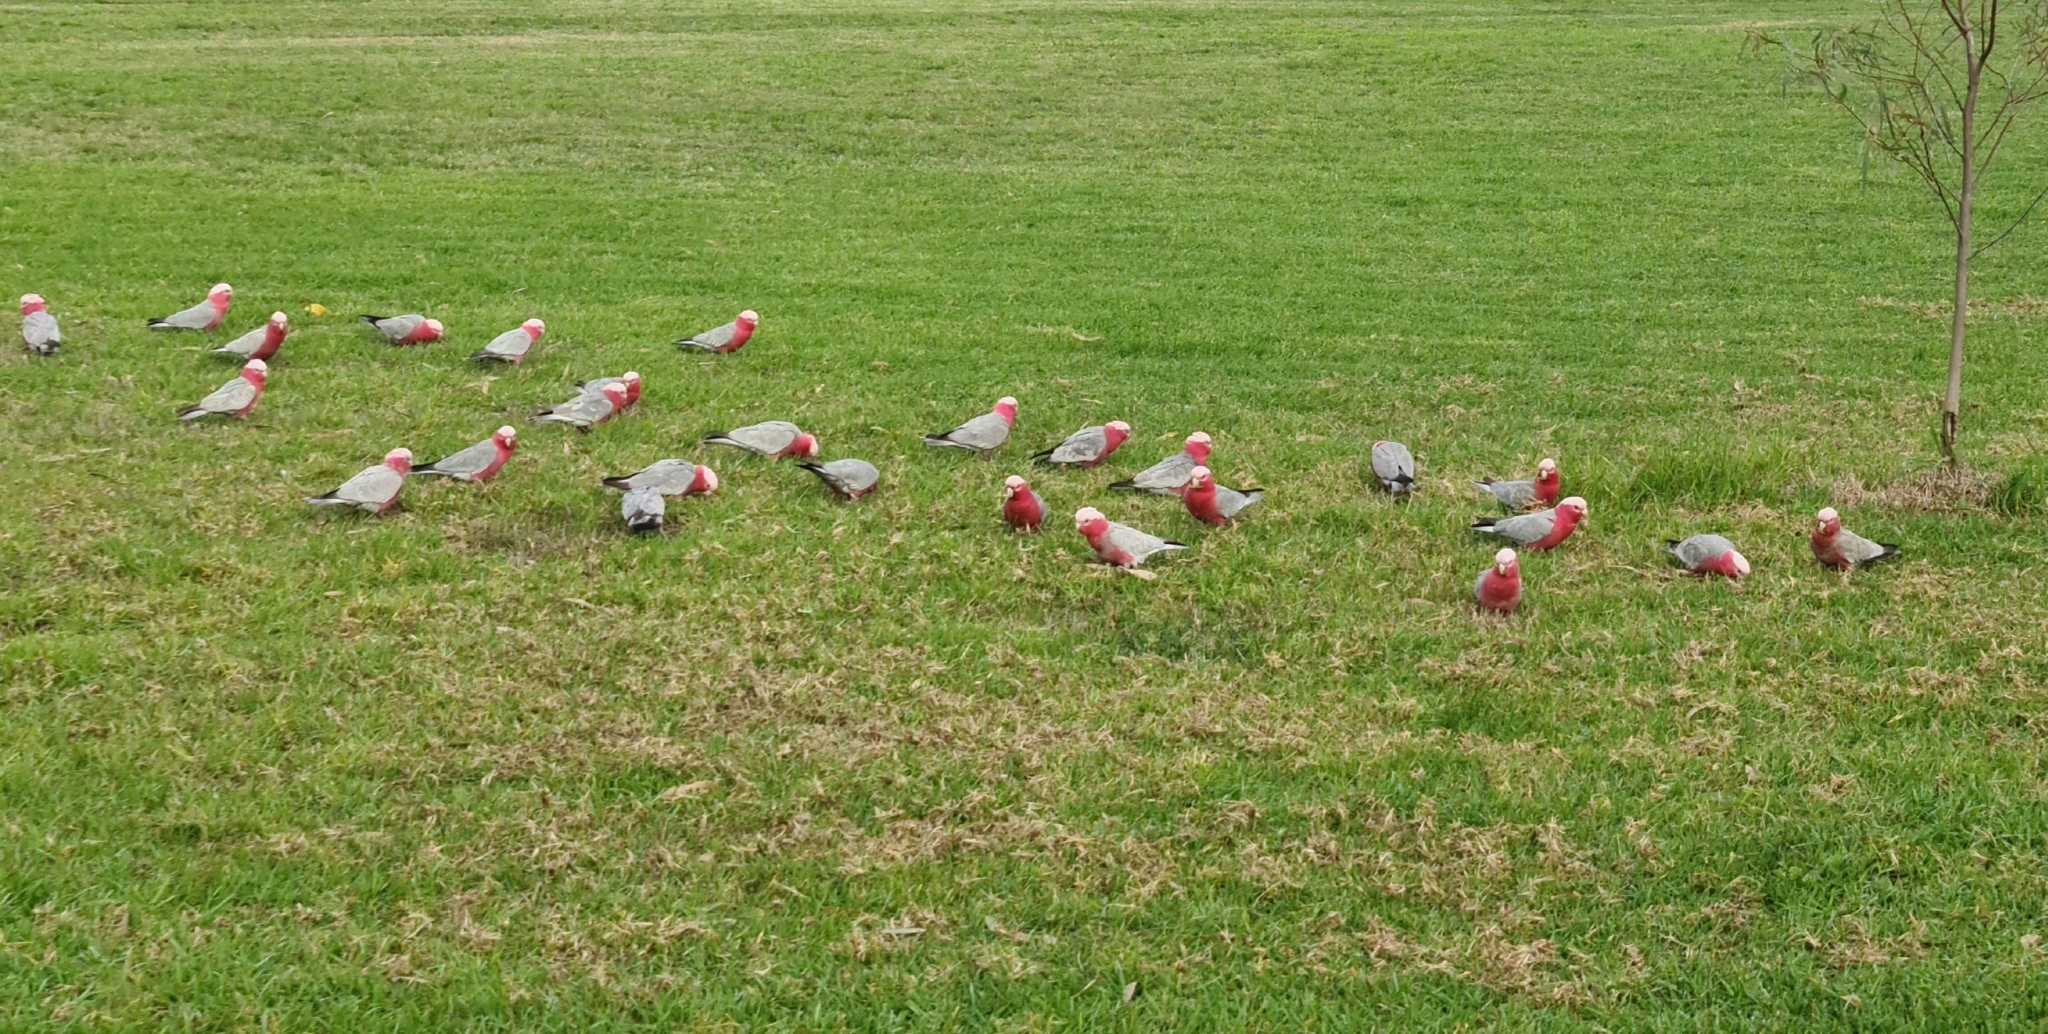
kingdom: Animalia
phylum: Chordata
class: Aves
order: Psittaciformes
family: Psittacidae
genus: Eolophus
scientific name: Eolophus roseicapilla
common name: Galah
